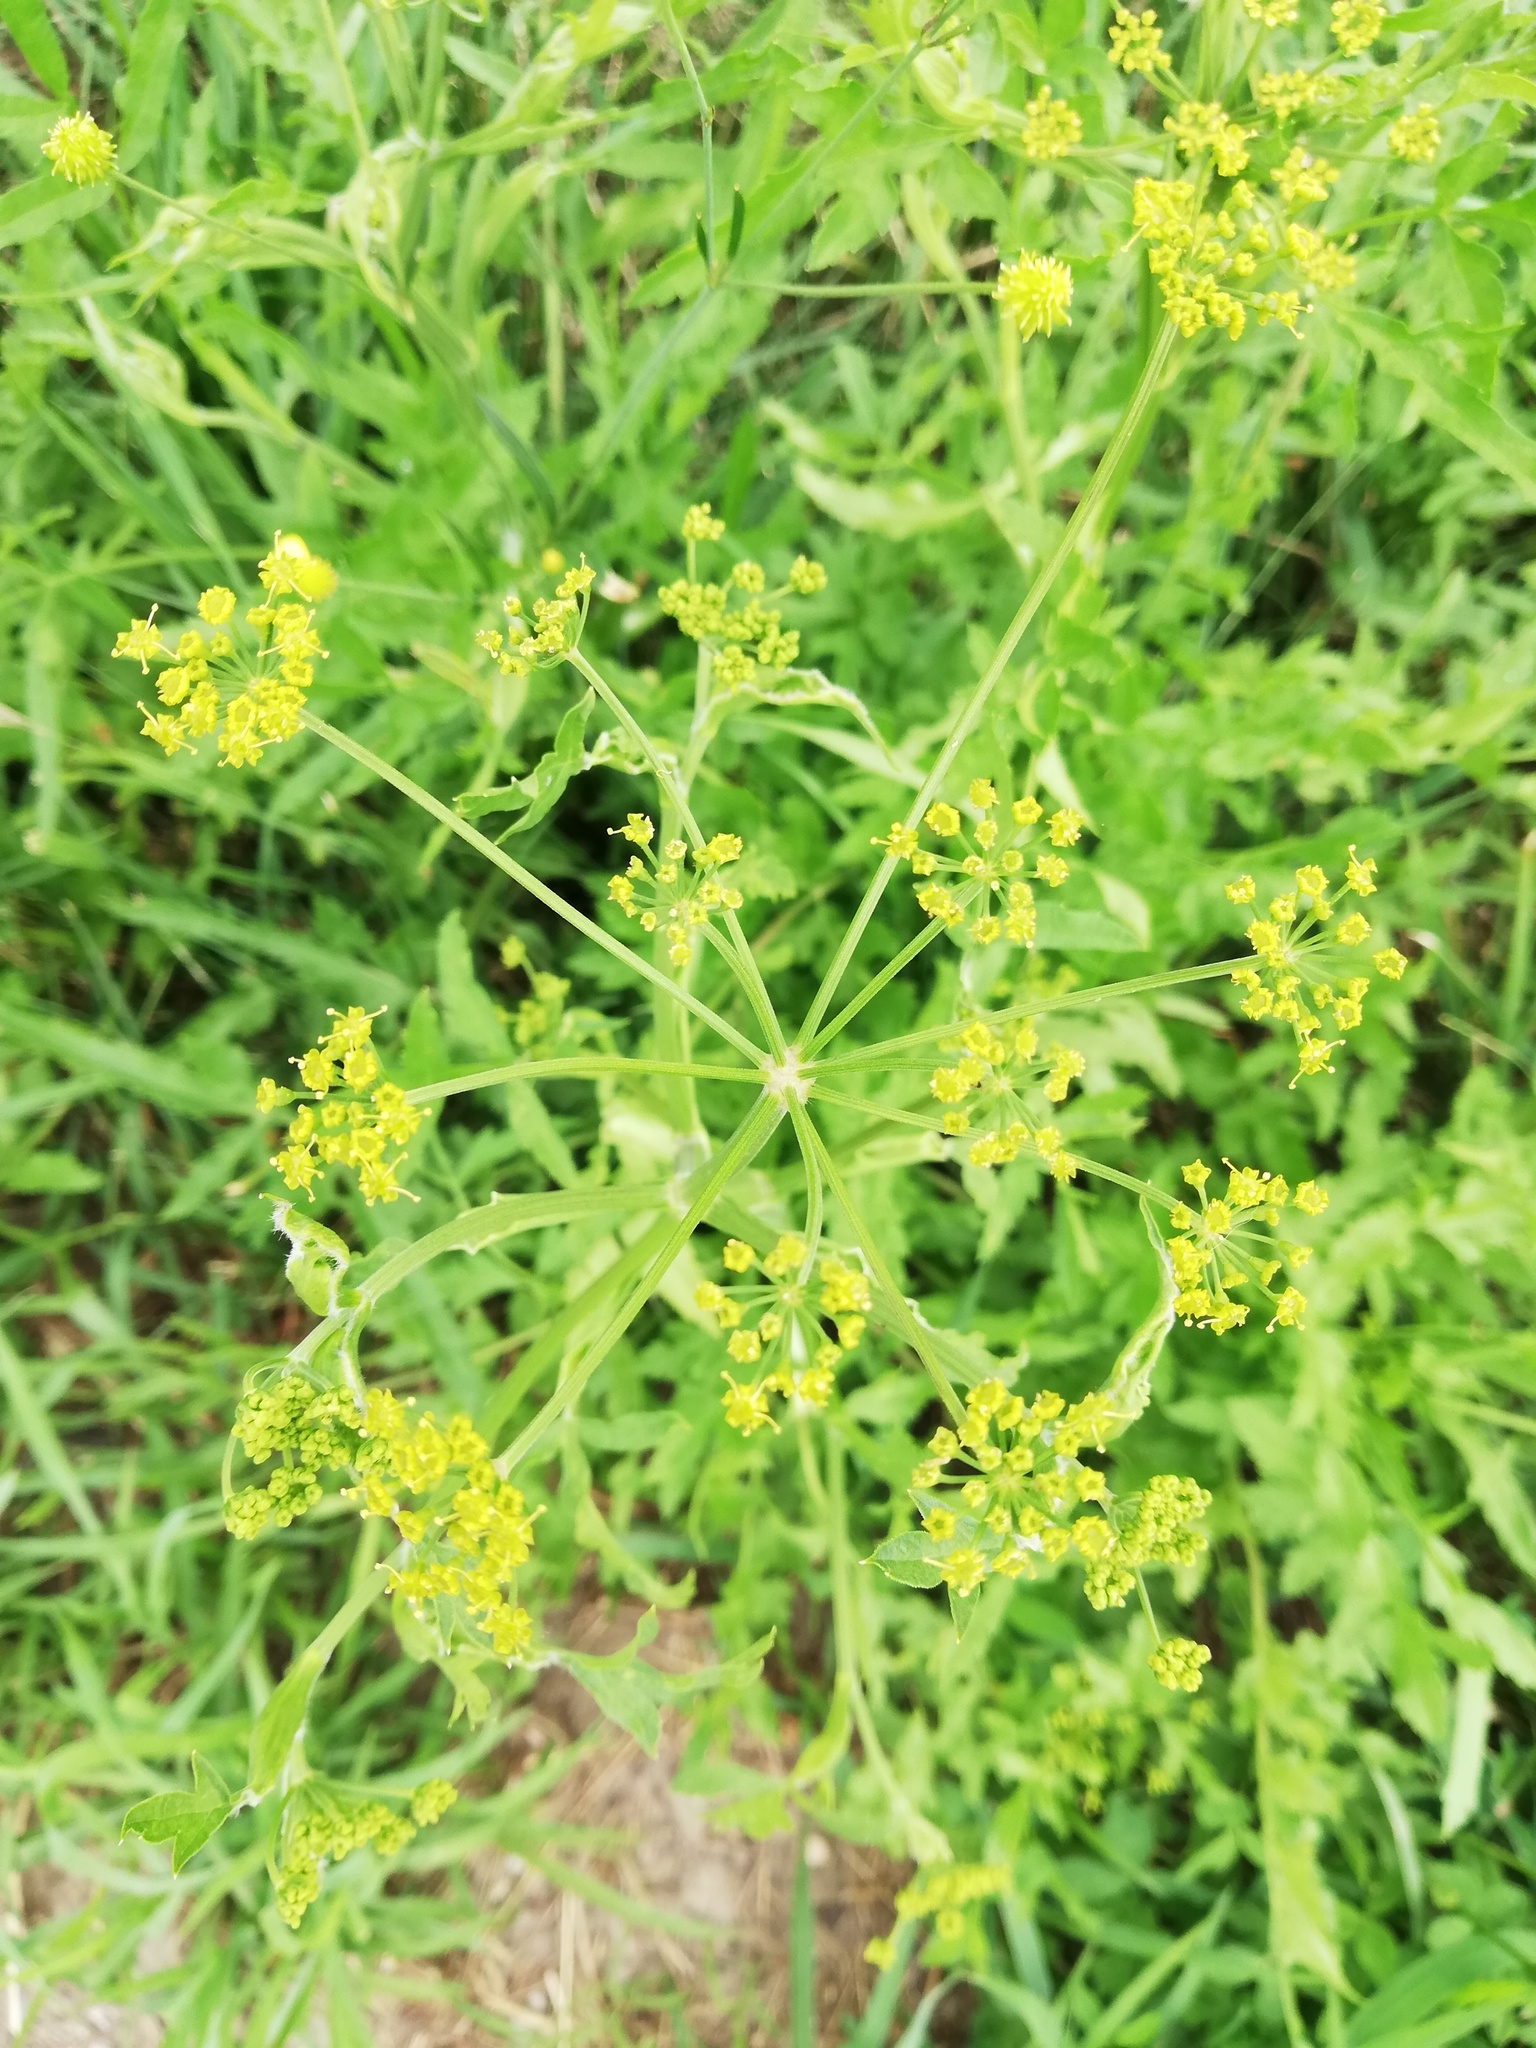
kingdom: Plantae
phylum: Tracheophyta
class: Magnoliopsida
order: Apiales
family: Apiaceae
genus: Pastinaca
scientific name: Pastinaca sativa
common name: Wild parsnip
